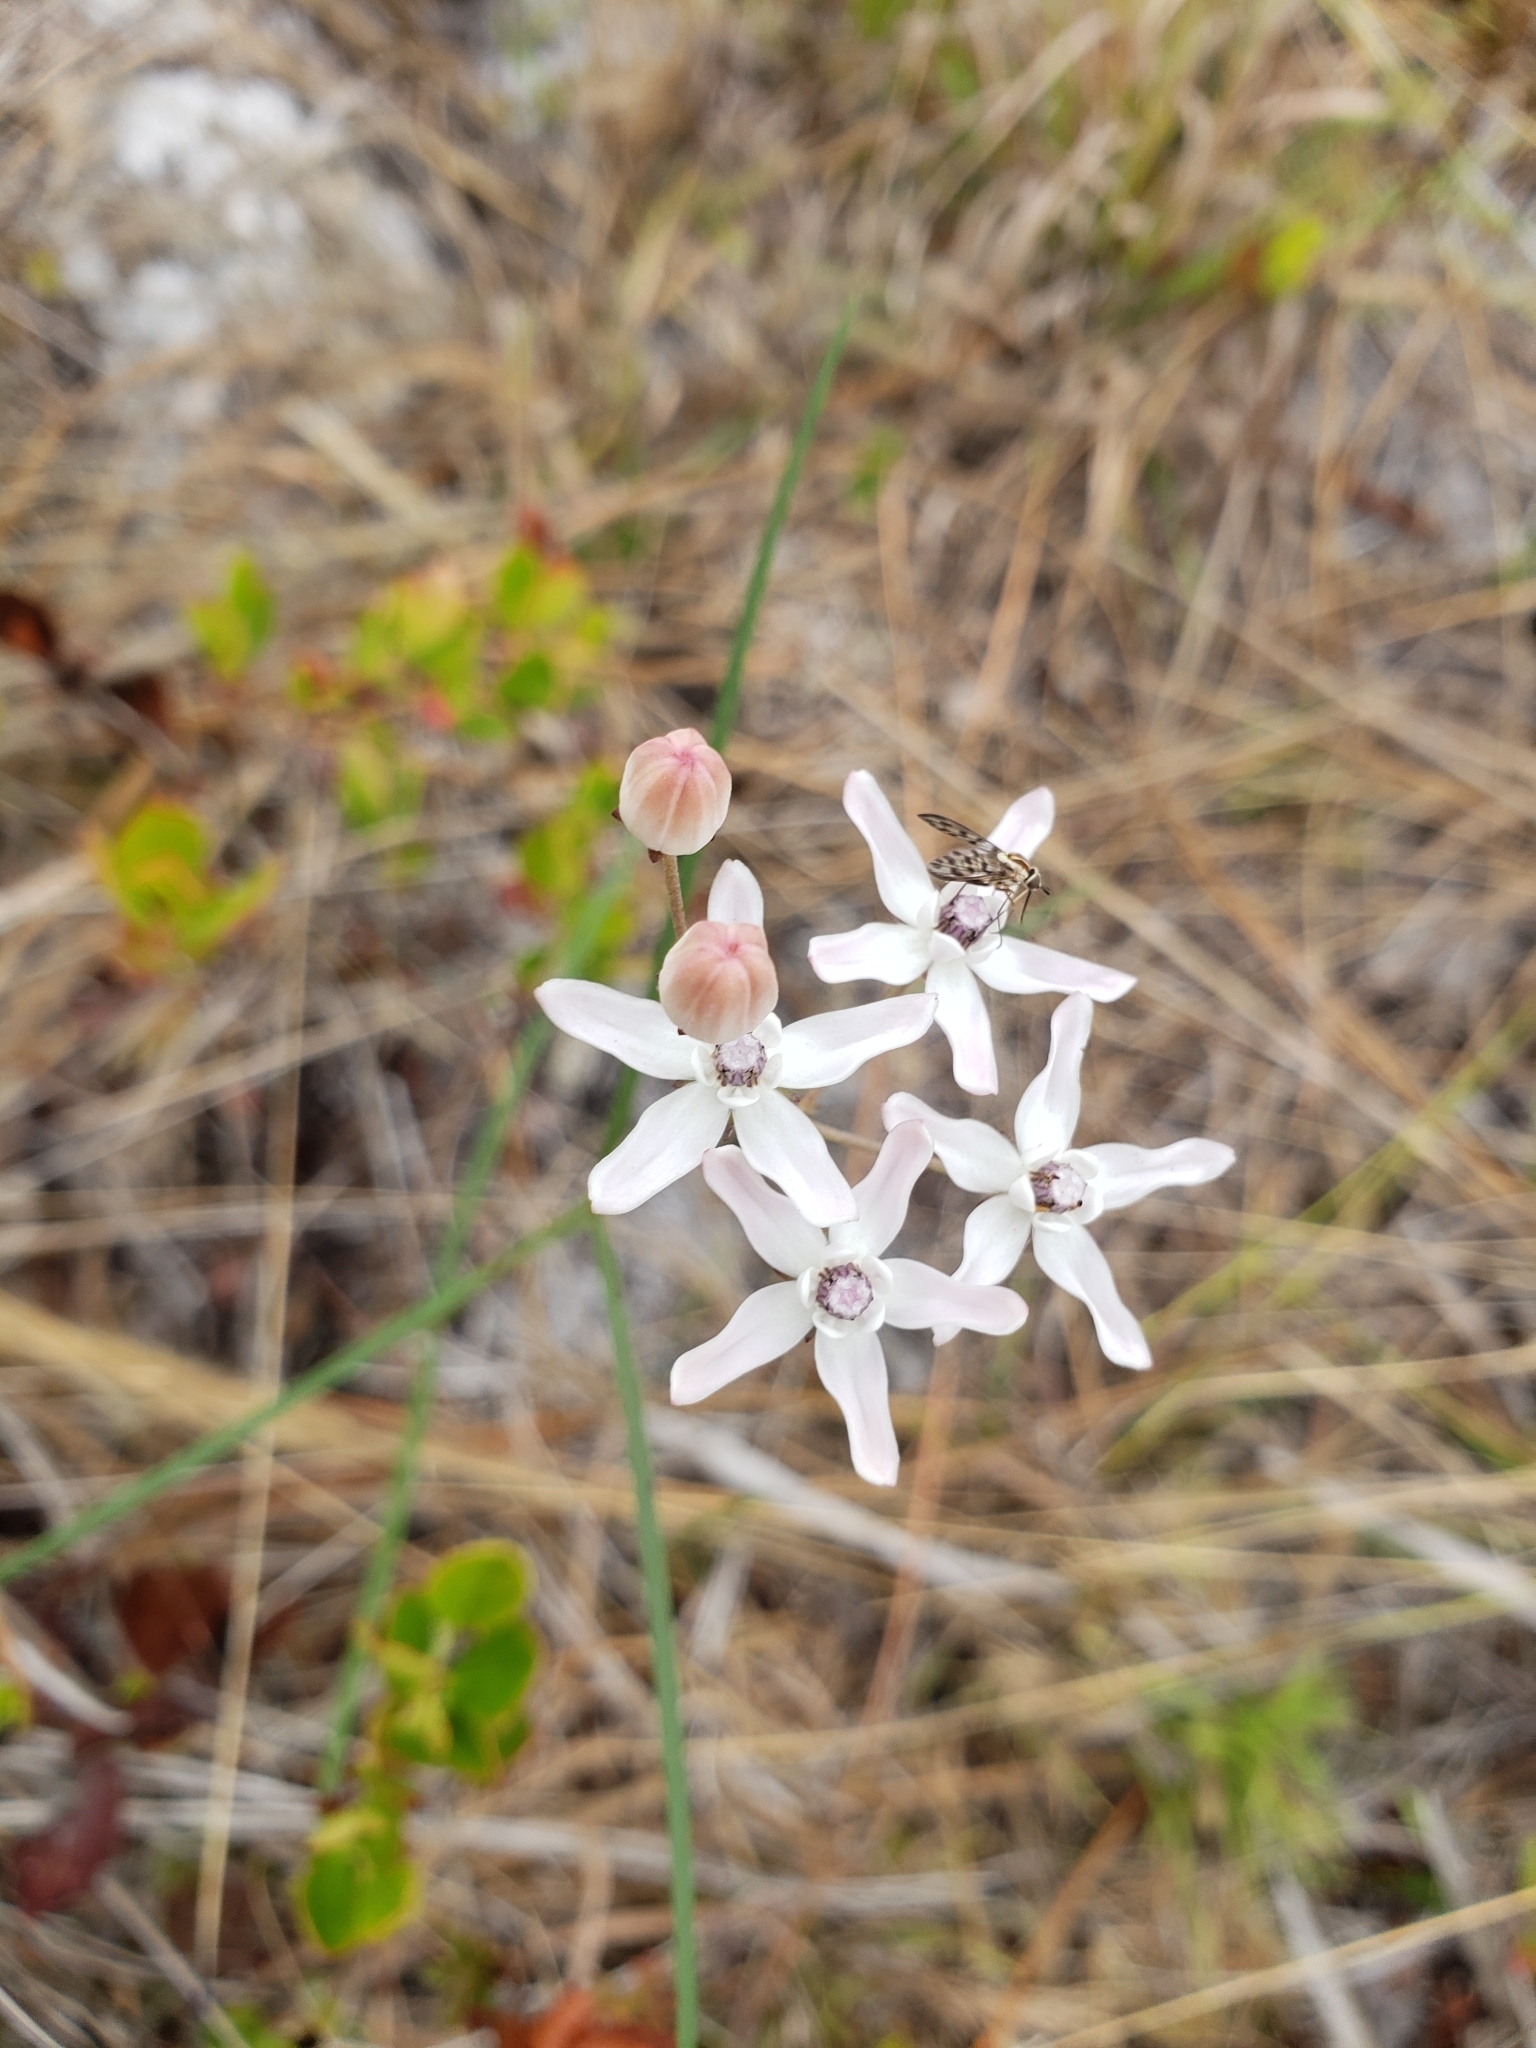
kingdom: Plantae
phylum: Tracheophyta
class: Magnoliopsida
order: Gentianales
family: Apocynaceae
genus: Asclepias
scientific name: Asclepias feayi
